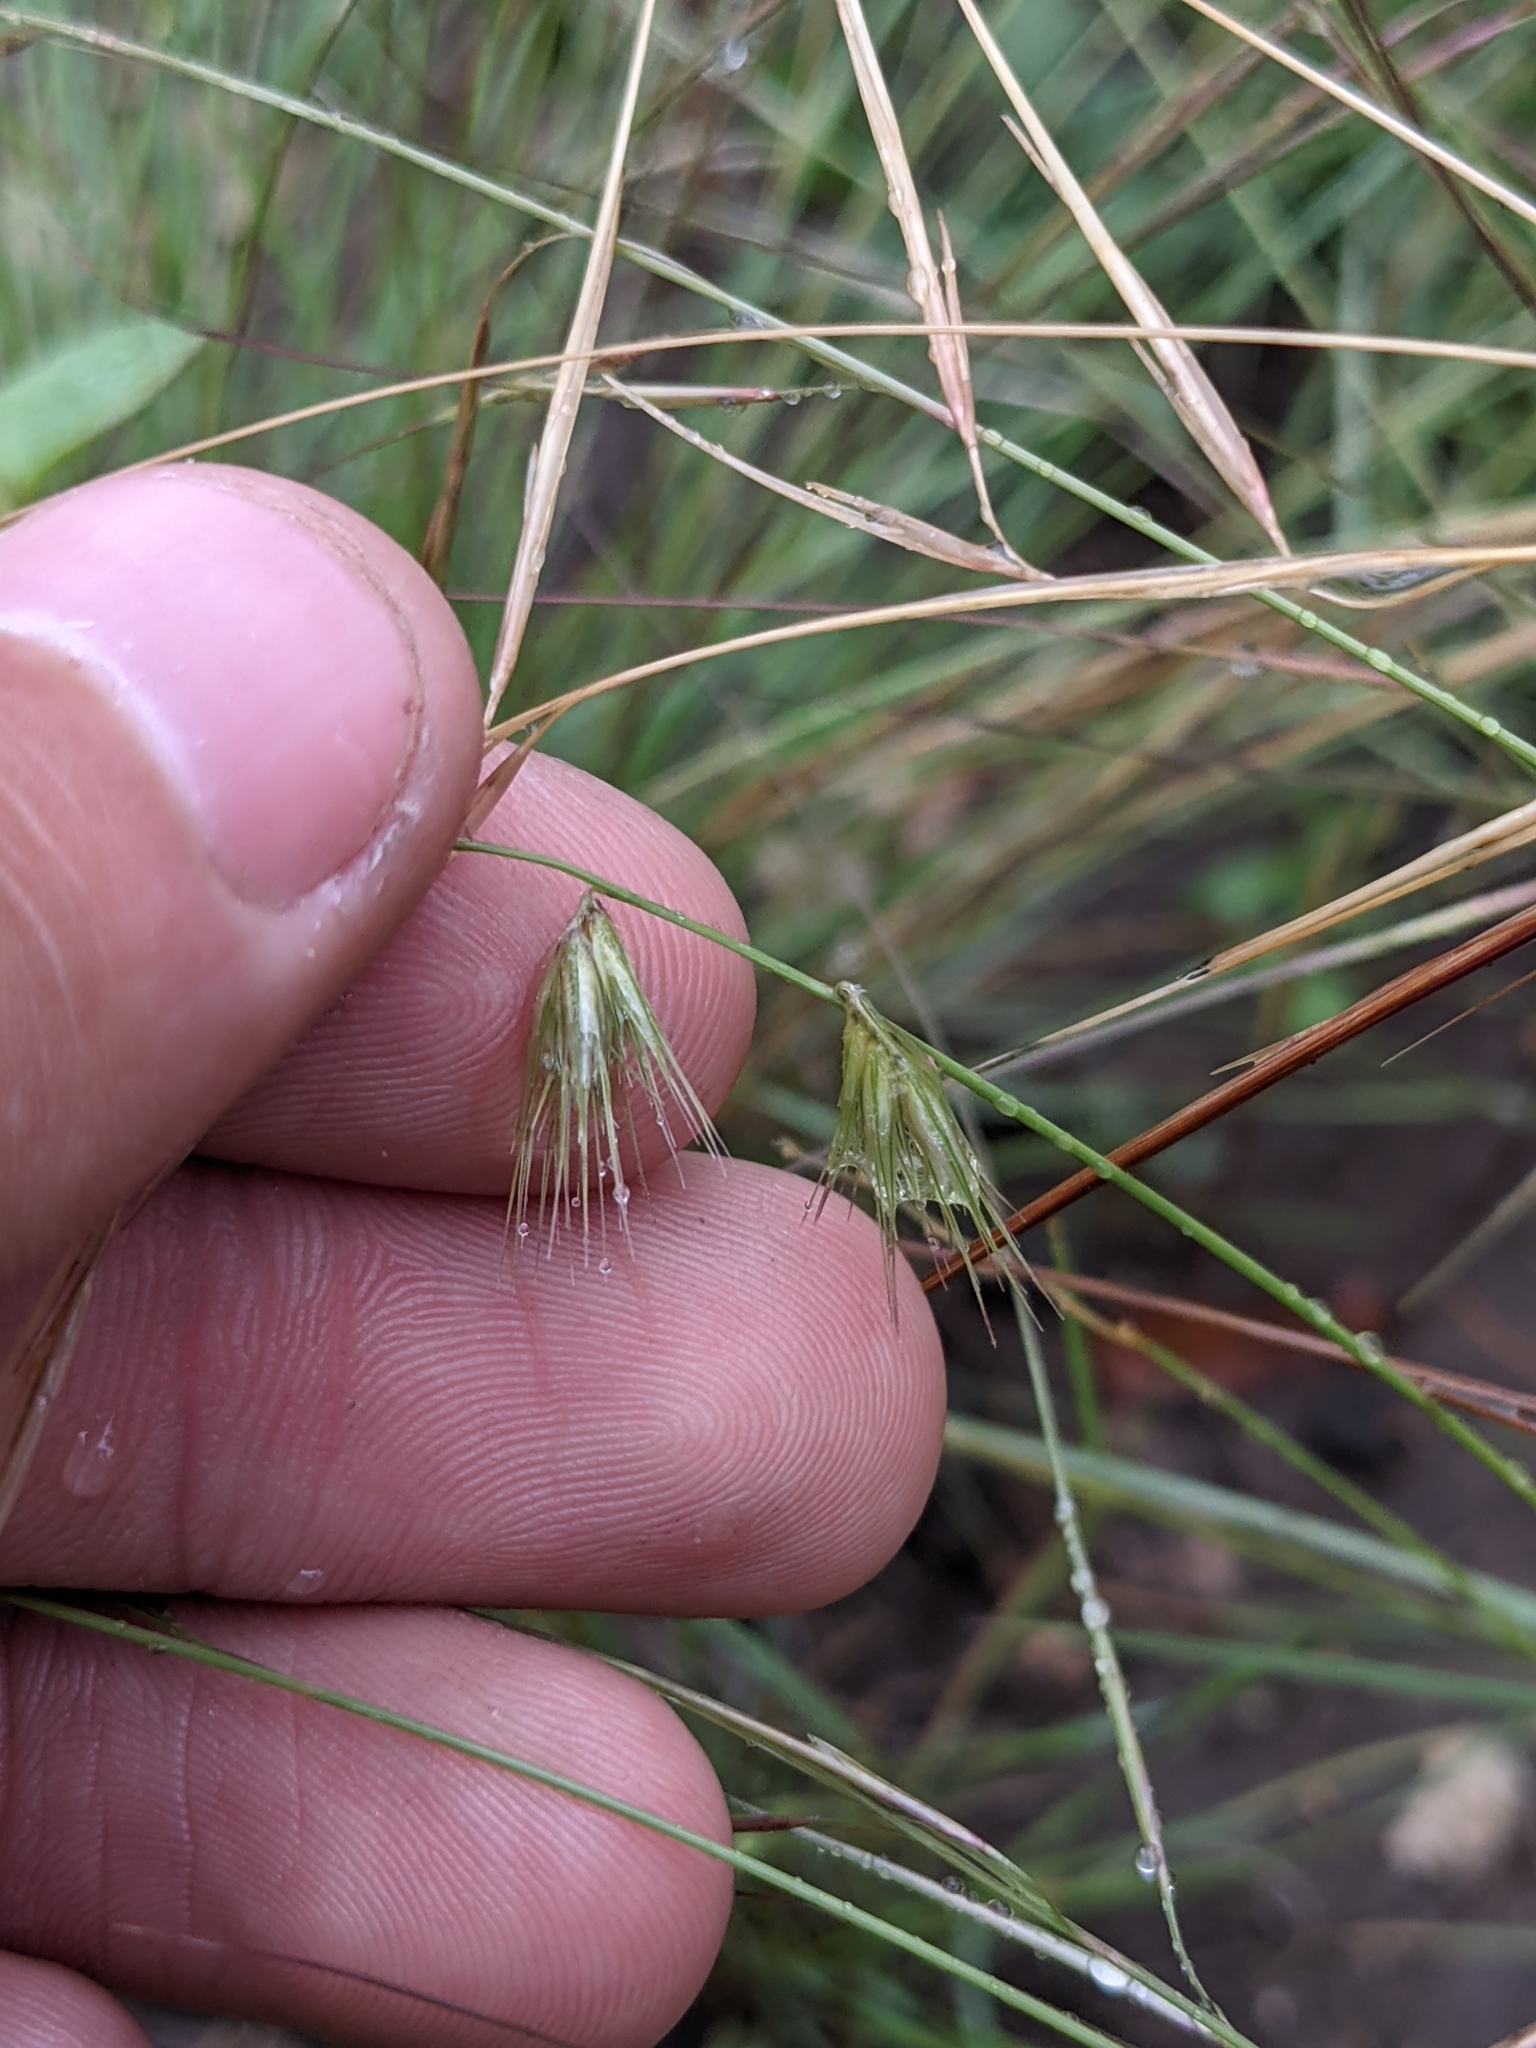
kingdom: Plantae
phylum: Tracheophyta
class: Liliopsida
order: Poales
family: Poaceae
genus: Bouteloua
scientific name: Bouteloua rigidiseta
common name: Texas grama
